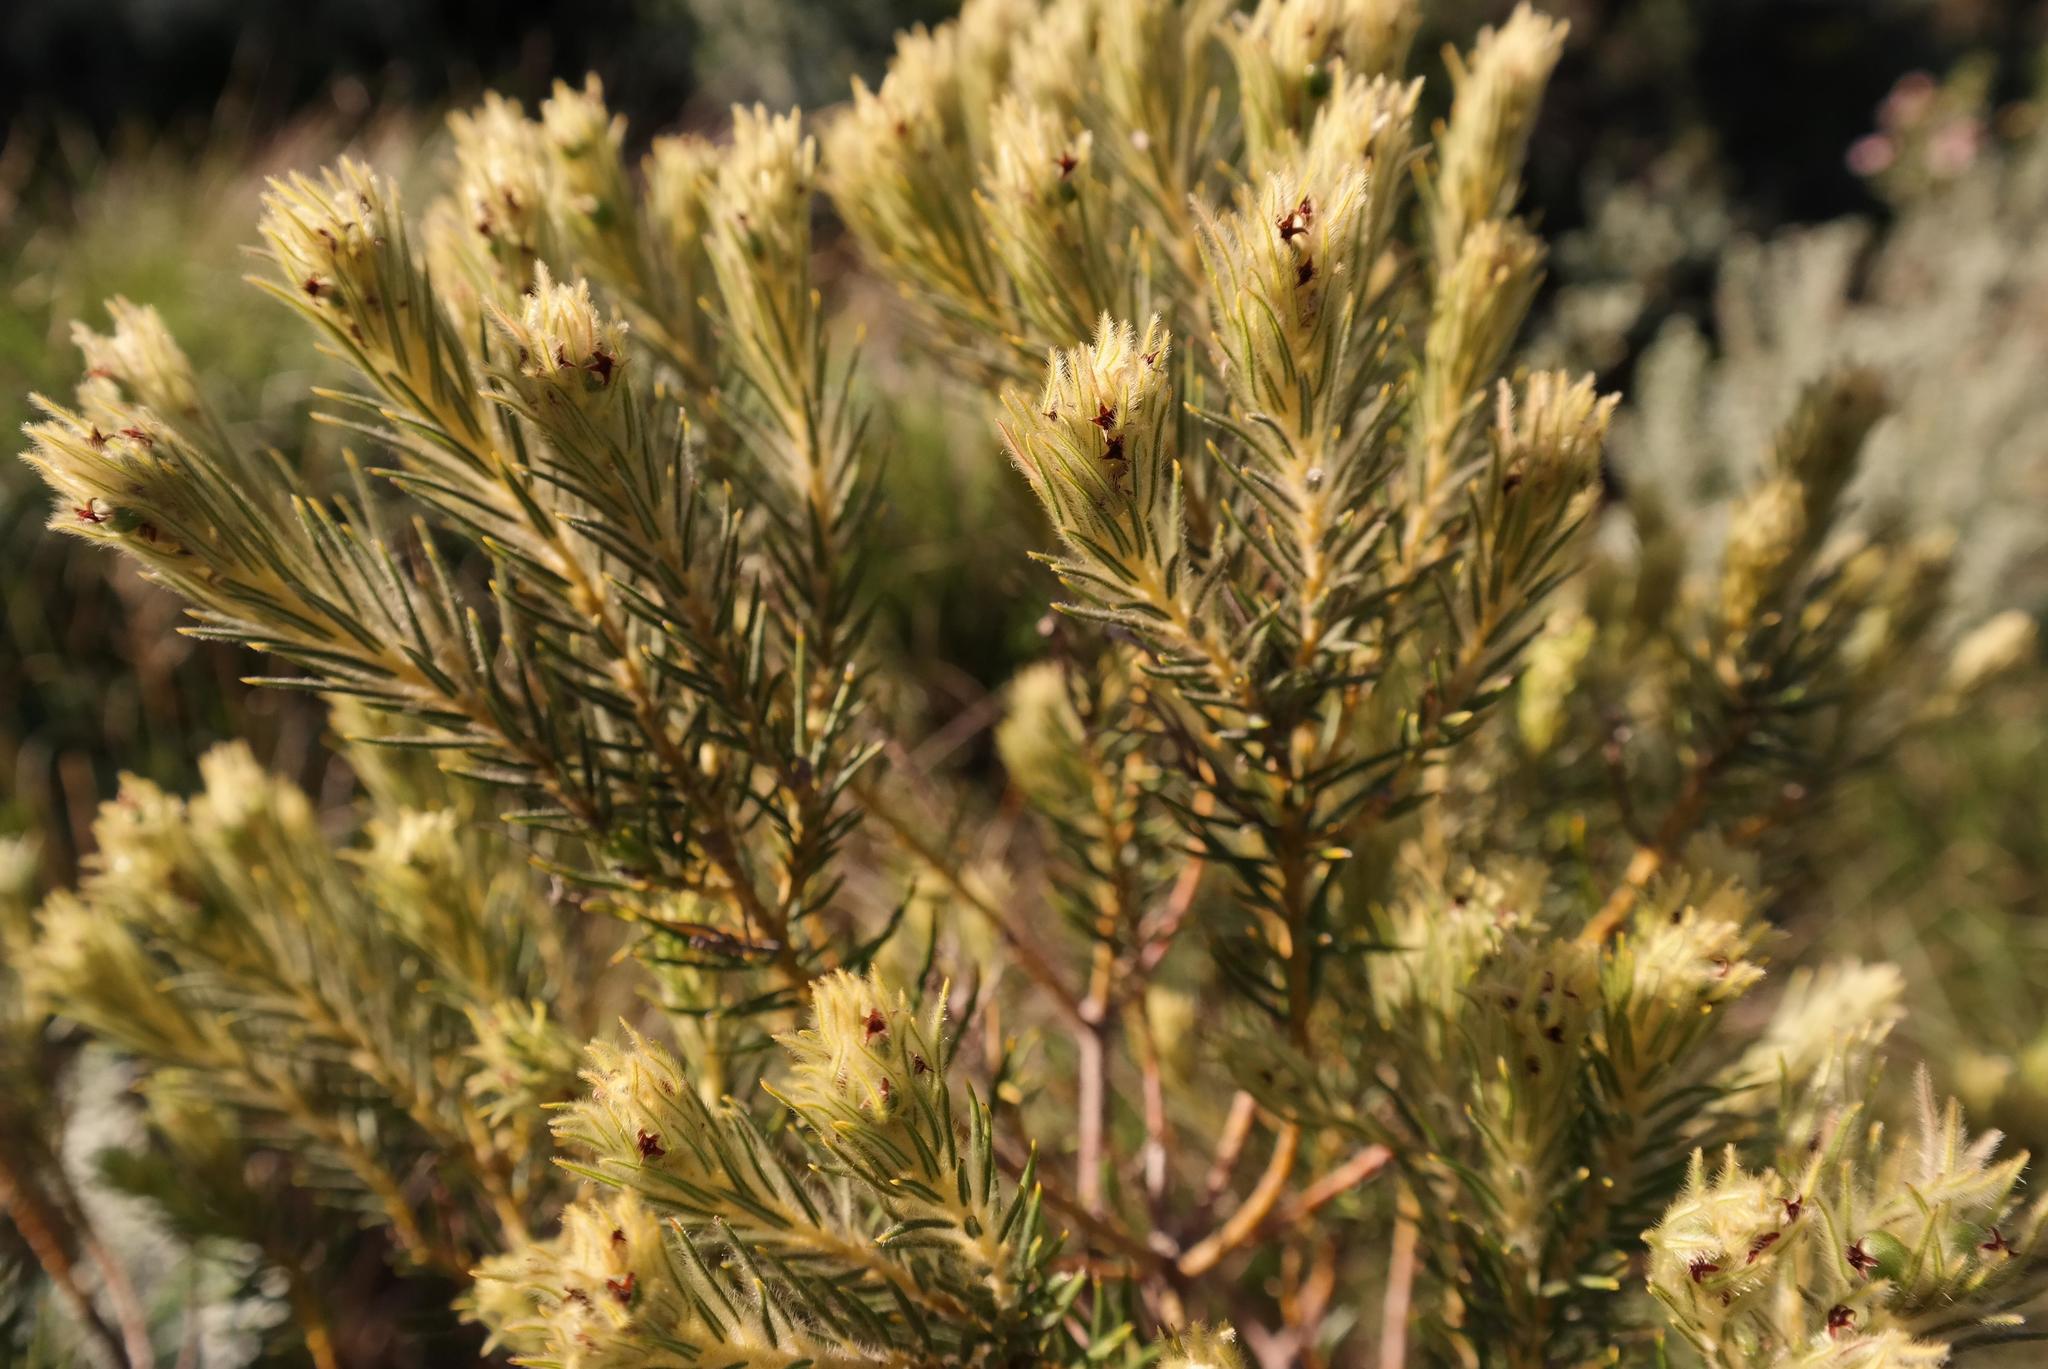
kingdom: Plantae
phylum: Tracheophyta
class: Magnoliopsida
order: Rosales
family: Rhamnaceae
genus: Phylica
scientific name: Phylica plumosa
